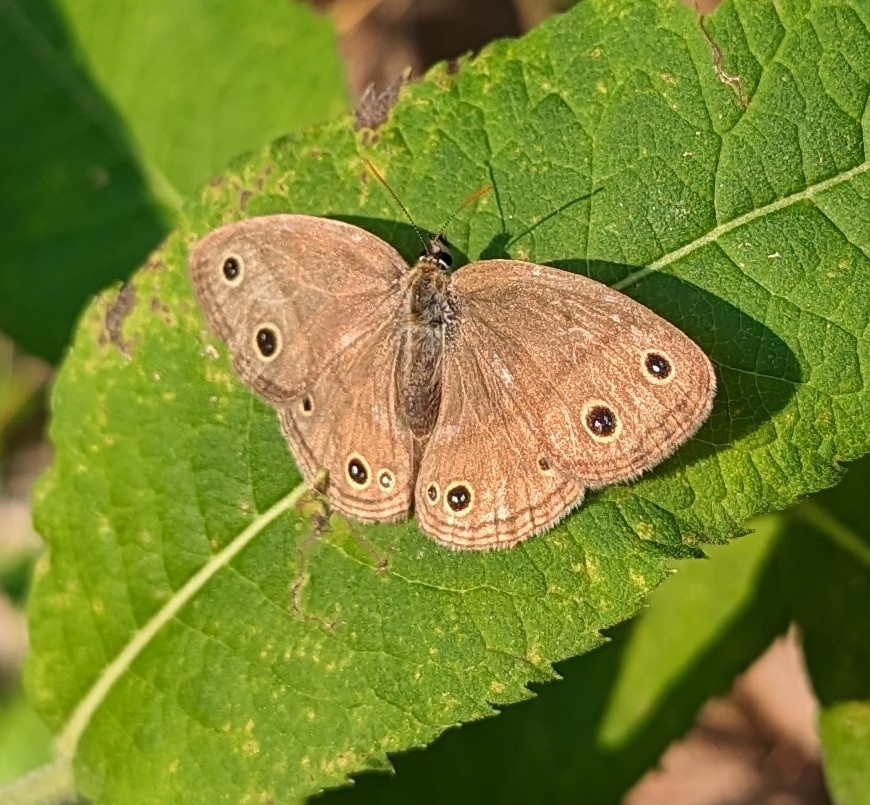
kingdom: Animalia
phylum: Arthropoda
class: Insecta
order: Lepidoptera
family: Nymphalidae
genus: Euptychia
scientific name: Euptychia cymela
